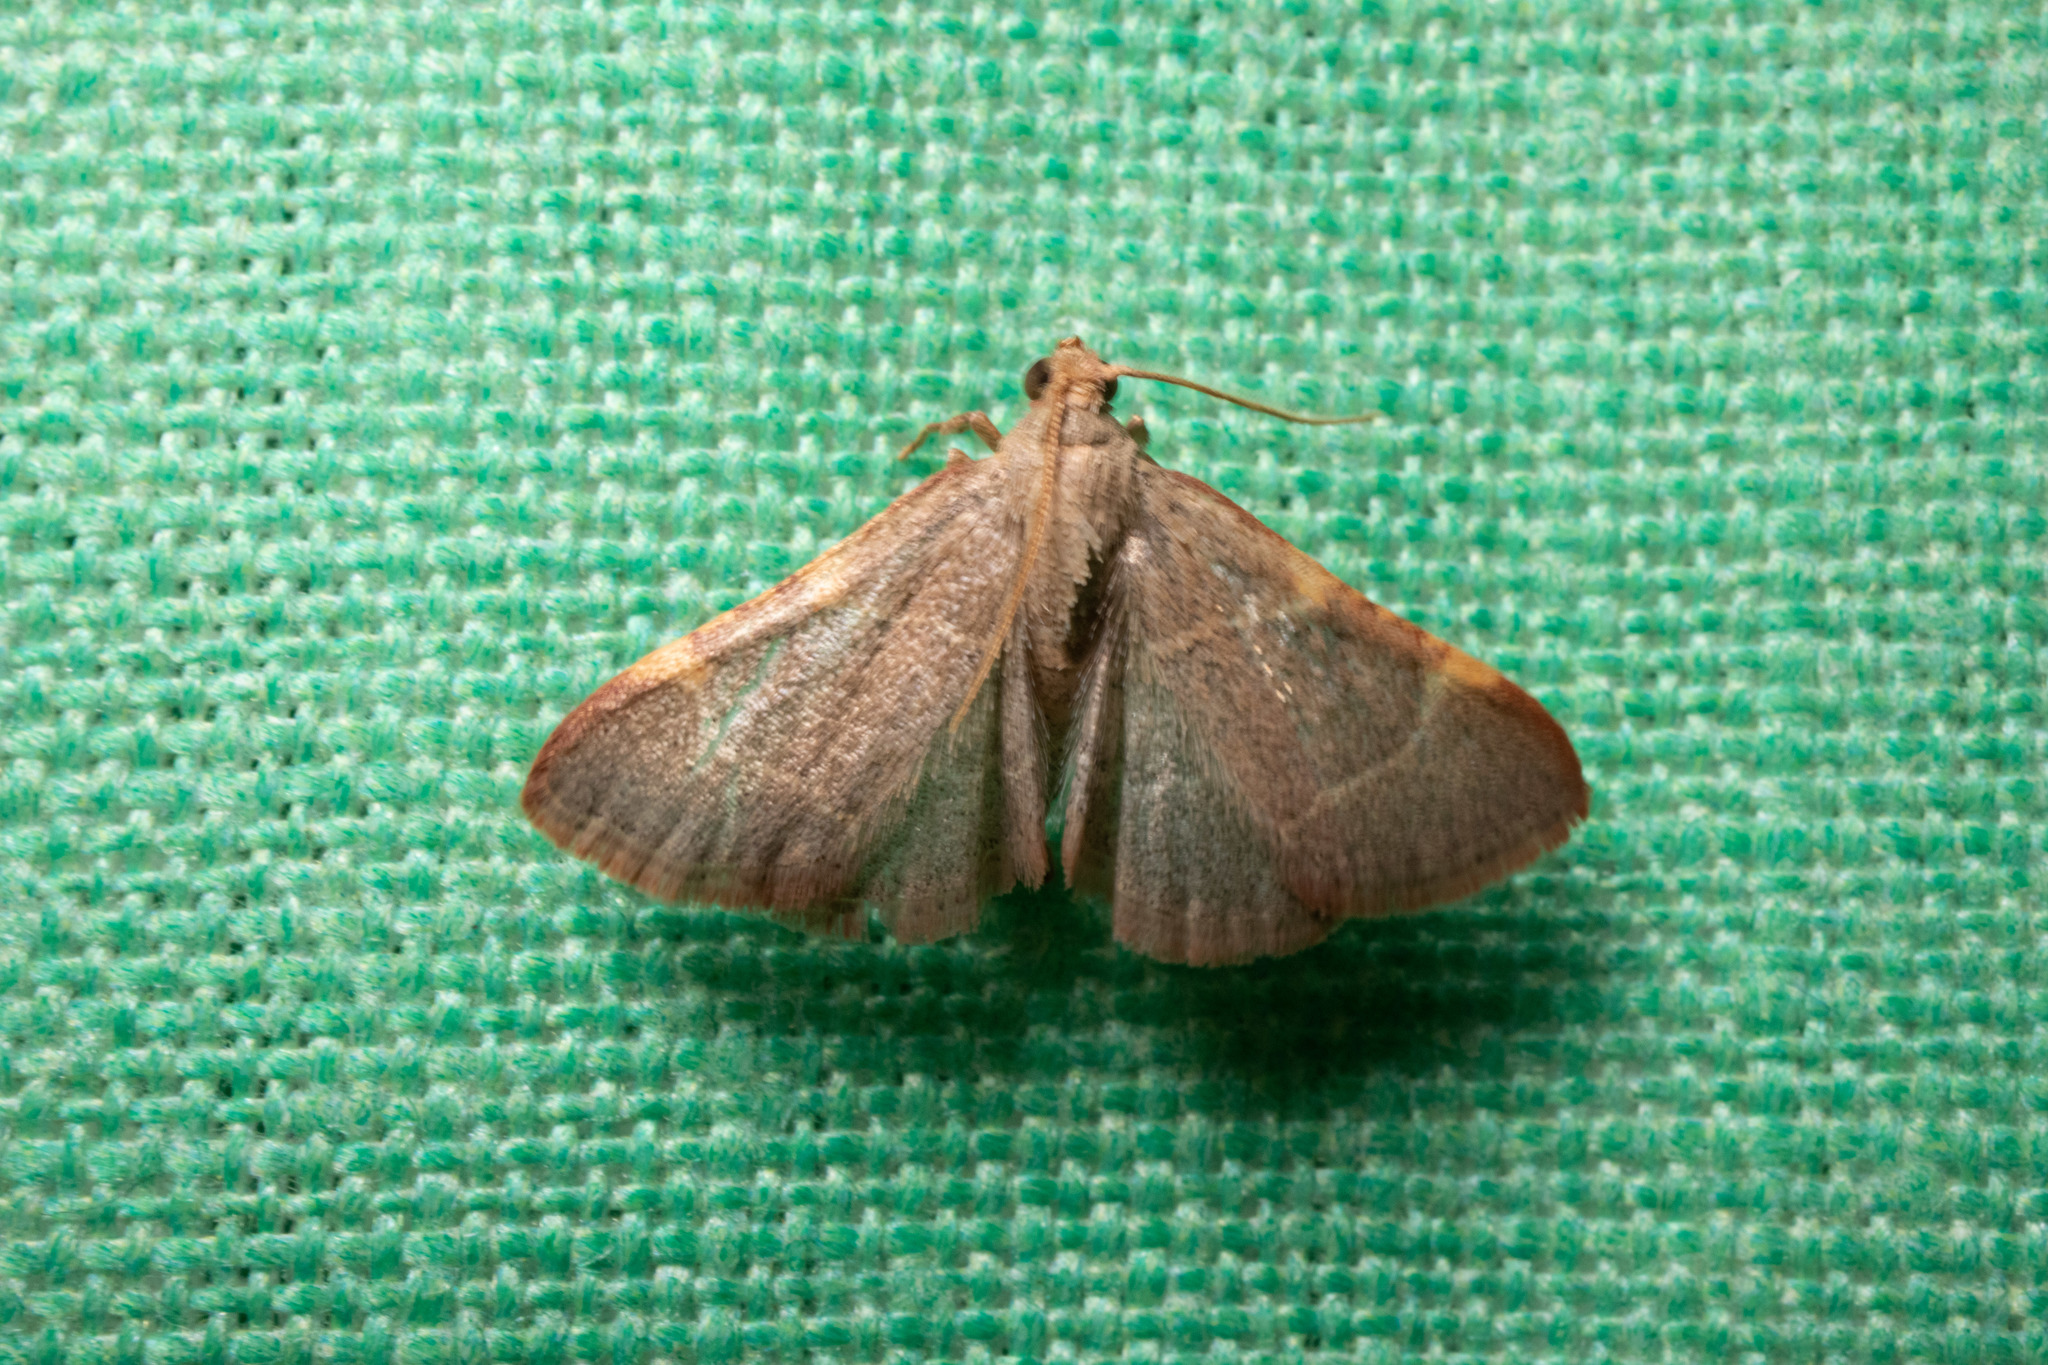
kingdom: Animalia
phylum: Arthropoda
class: Insecta
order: Lepidoptera
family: Pyralidae
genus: Hypsopygia
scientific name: Hypsopygia binodulalis
